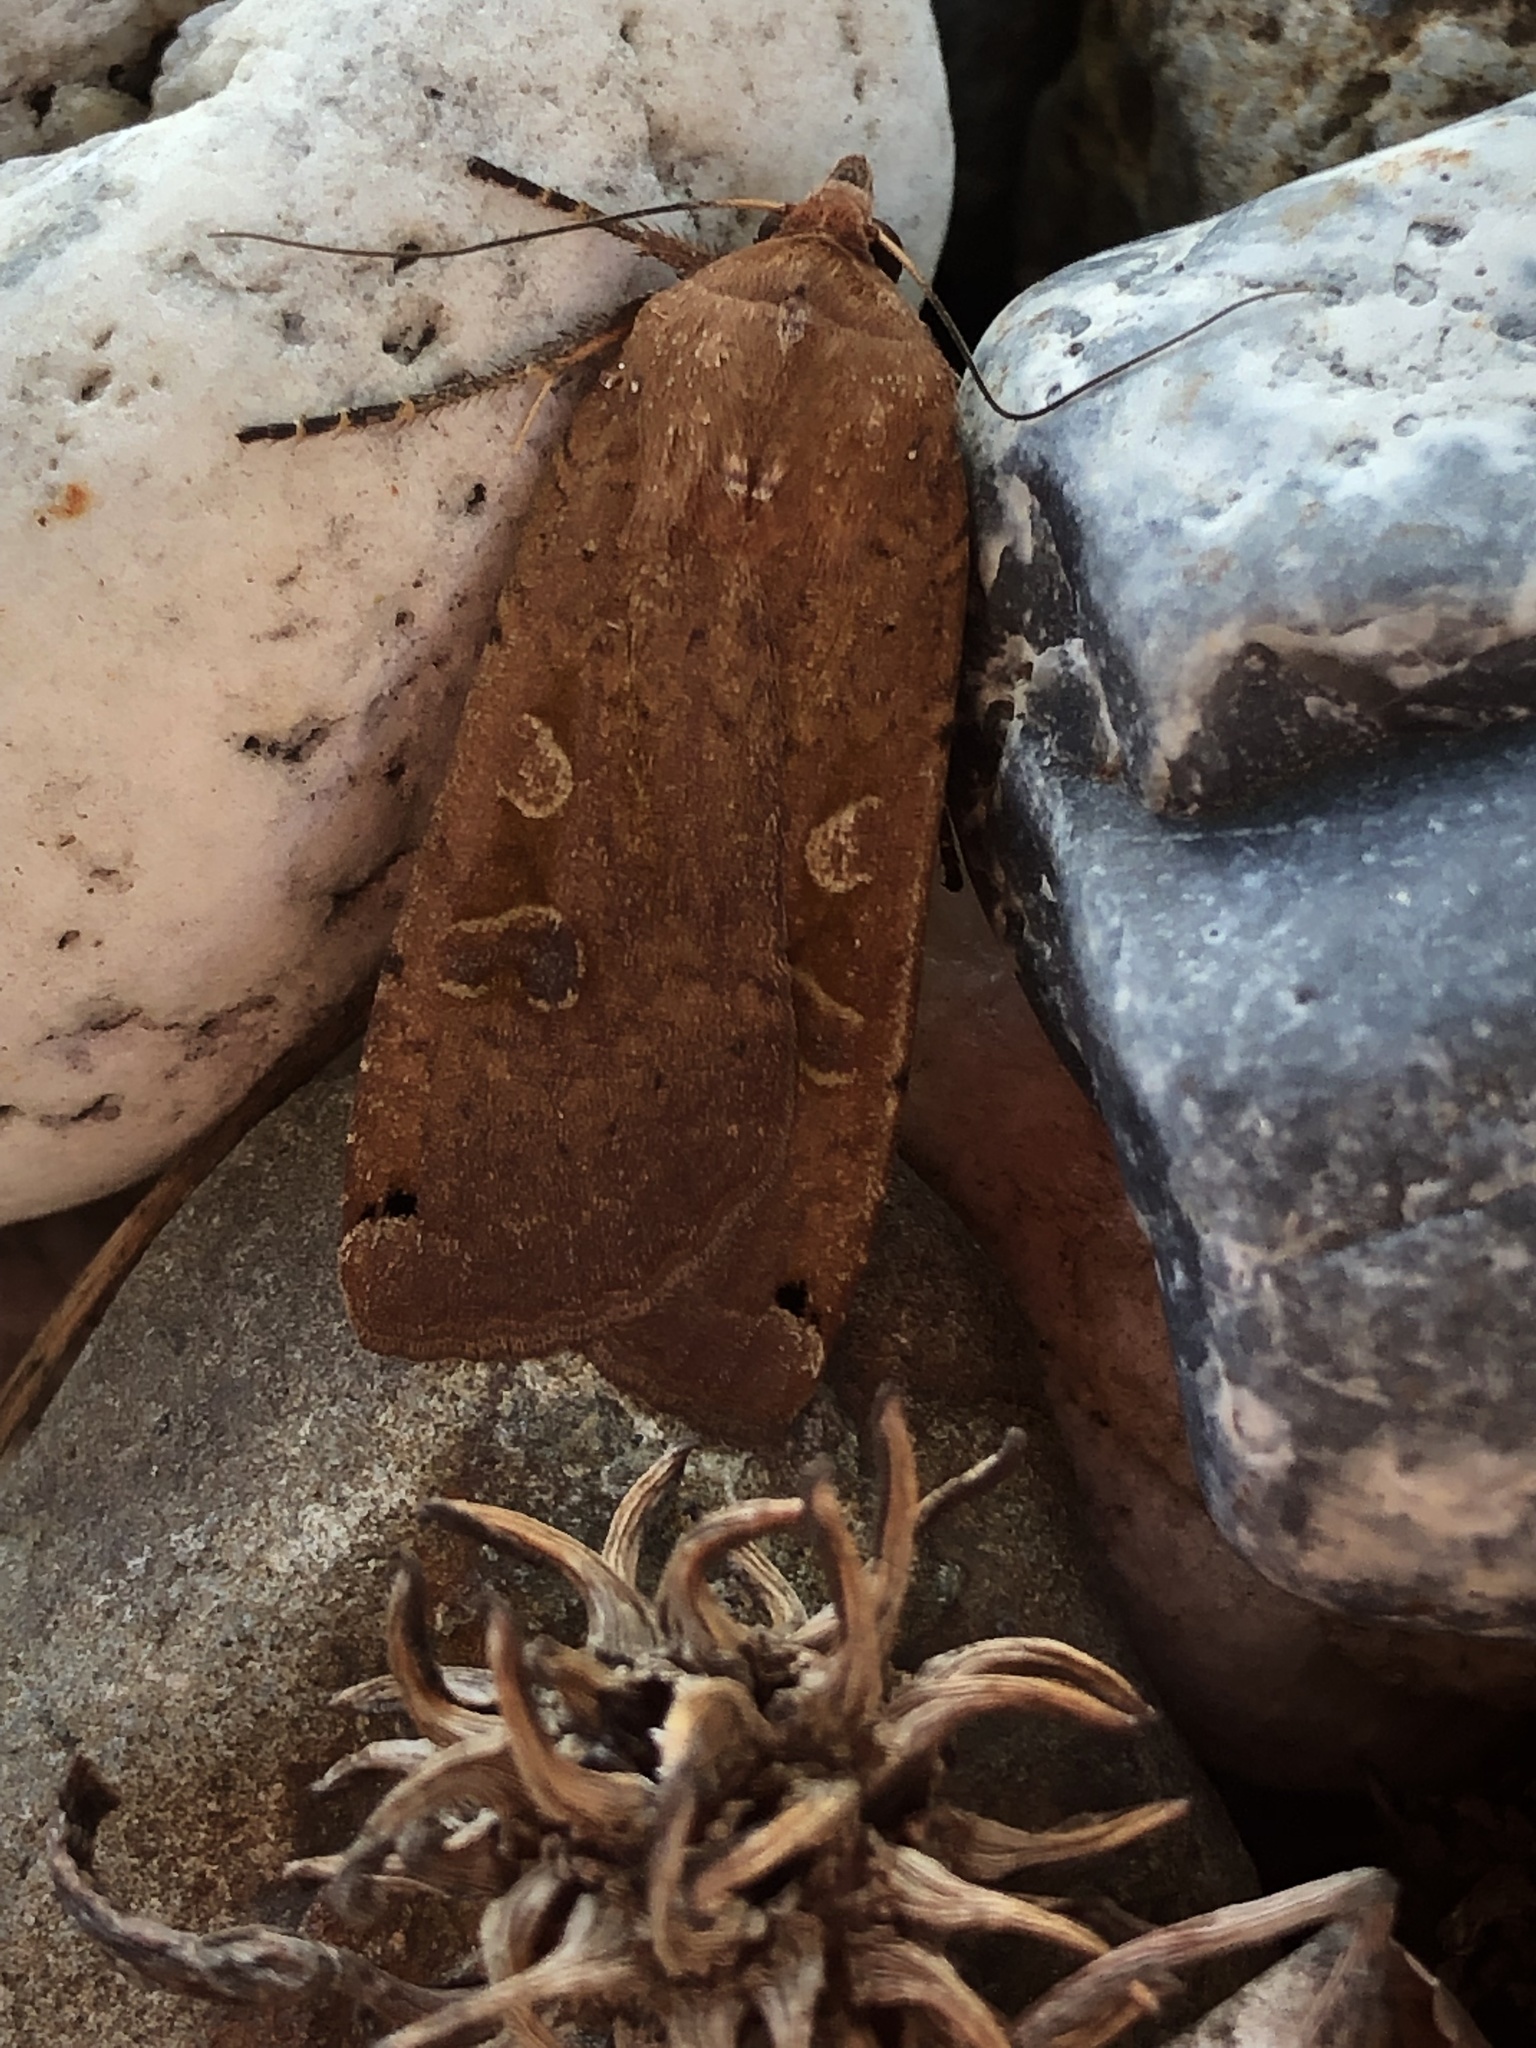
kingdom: Animalia
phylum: Arthropoda
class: Insecta
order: Lepidoptera
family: Noctuidae
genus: Noctua
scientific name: Noctua pronuba
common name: Large yellow underwing
